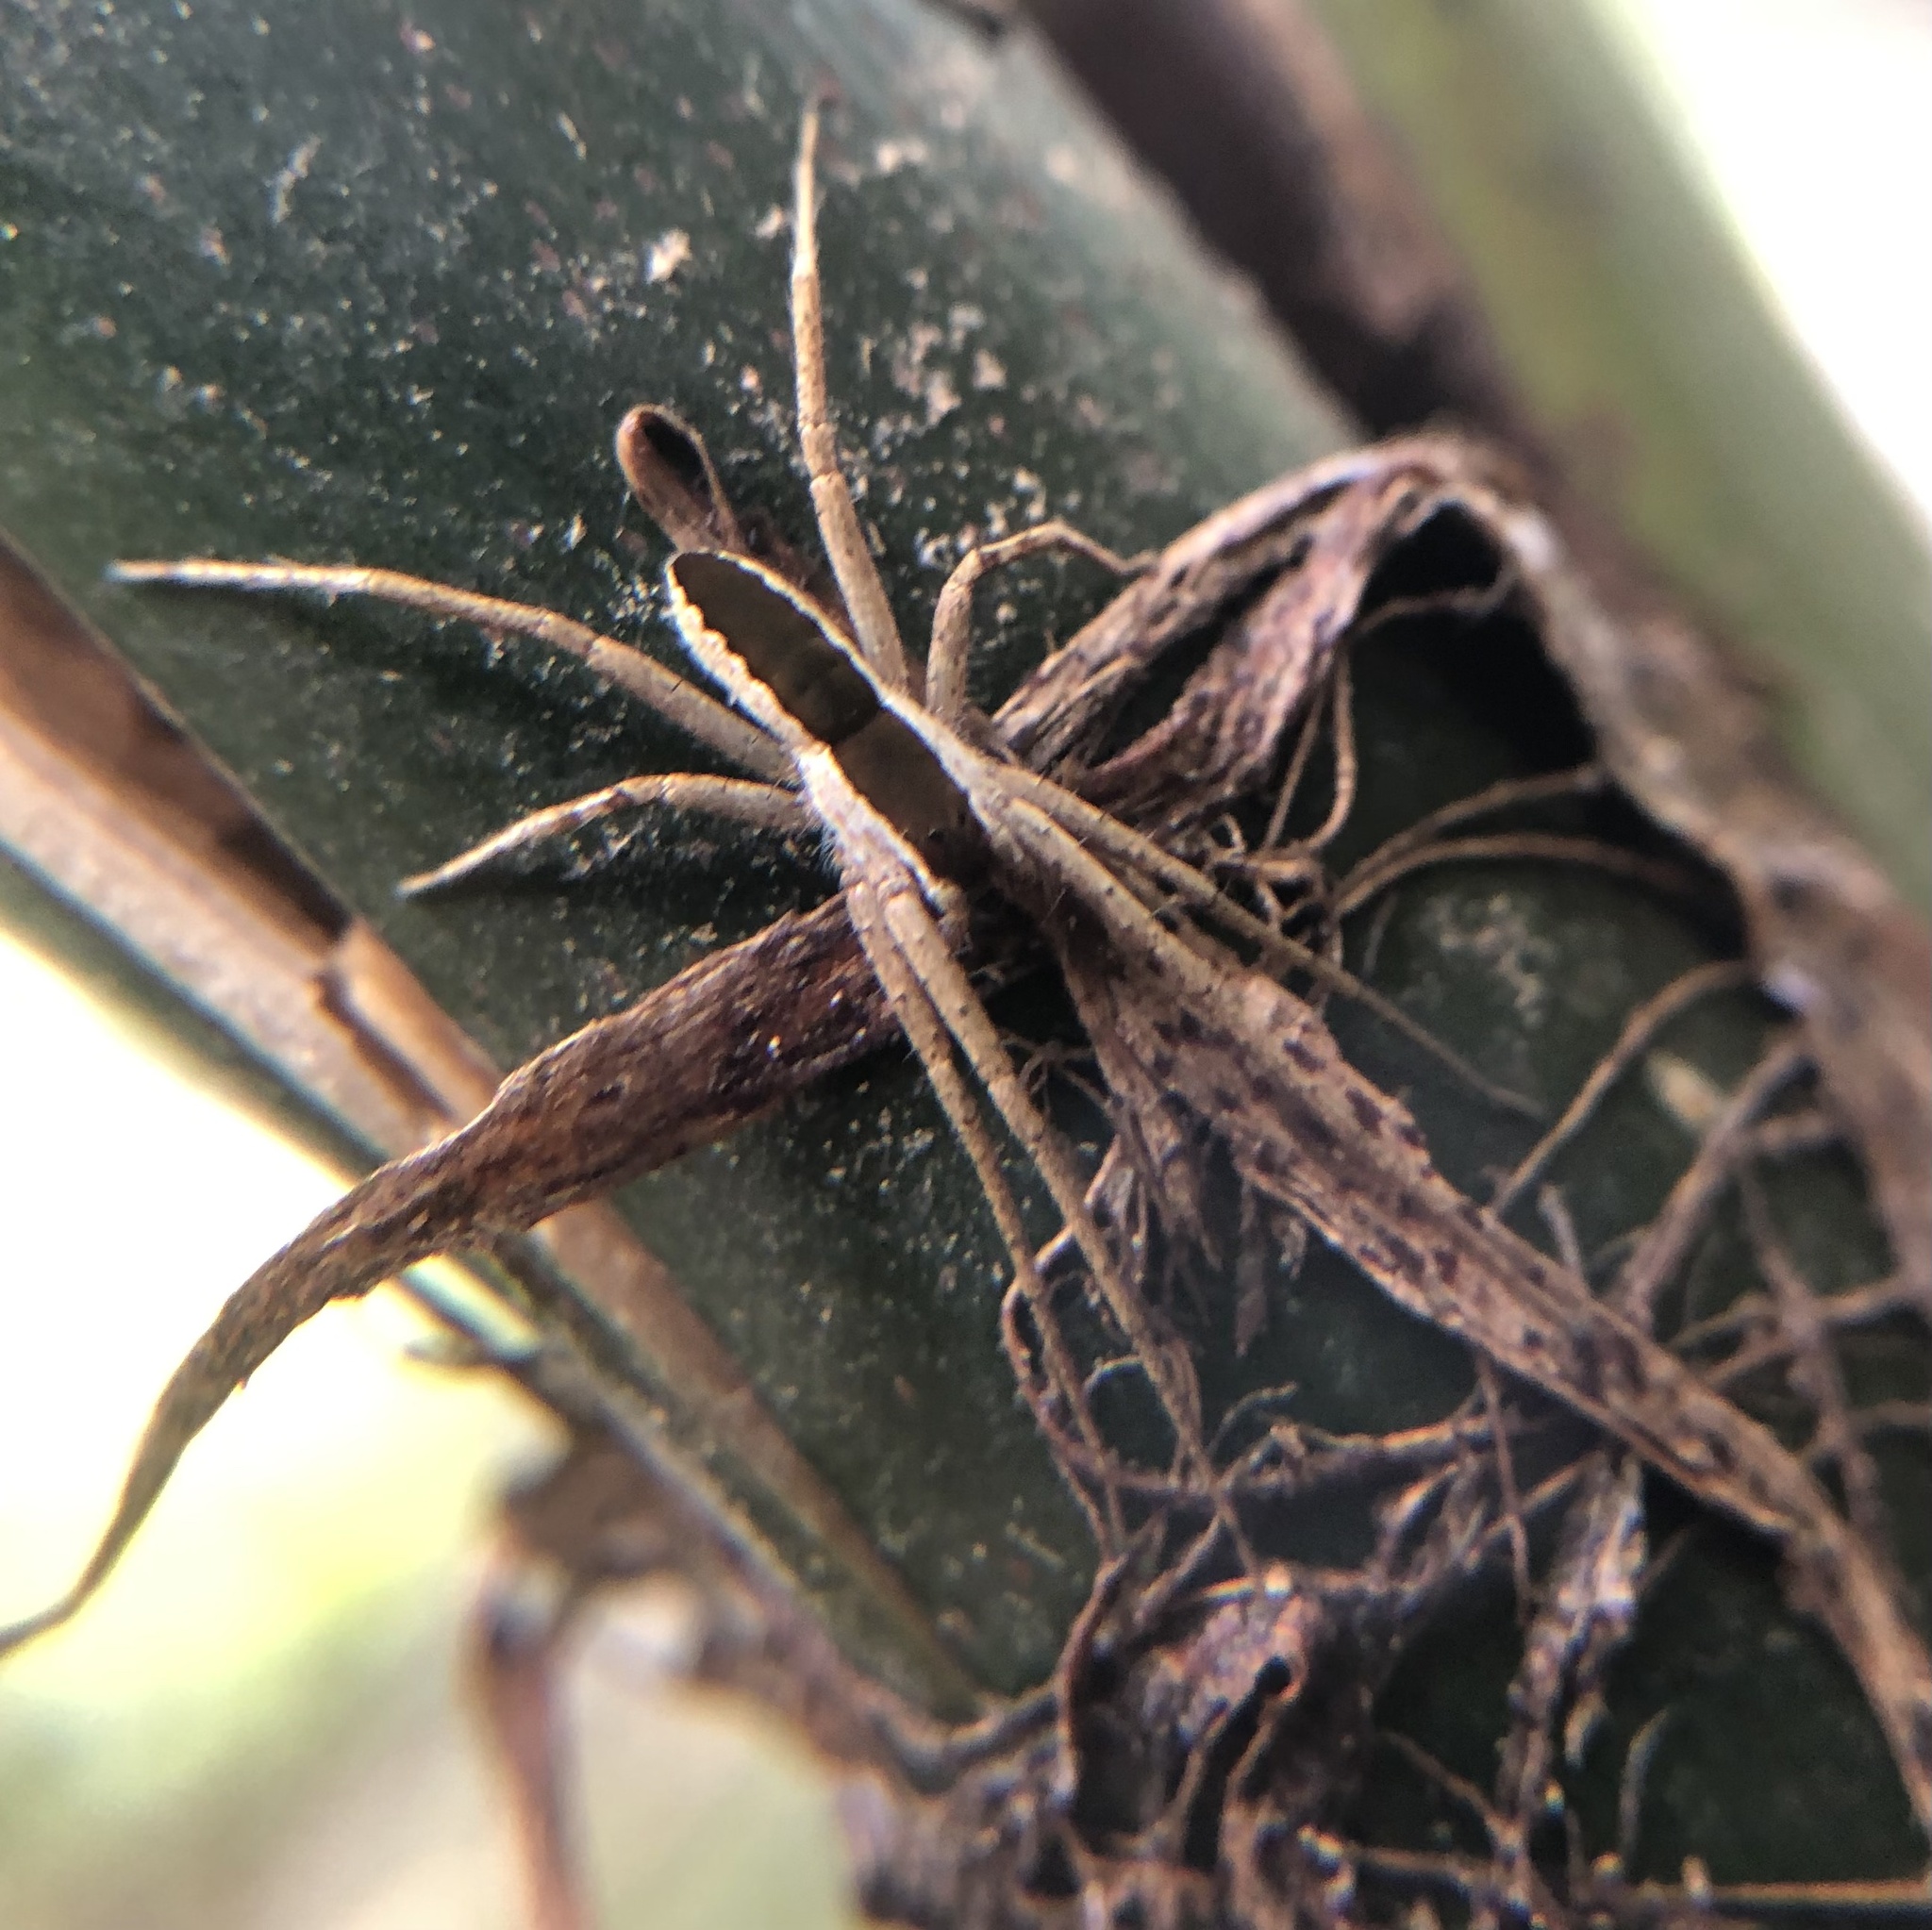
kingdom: Animalia
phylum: Arthropoda
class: Arachnida
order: Araneae
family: Trechaleidae
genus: Dossenus
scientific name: Dossenus marginatus
